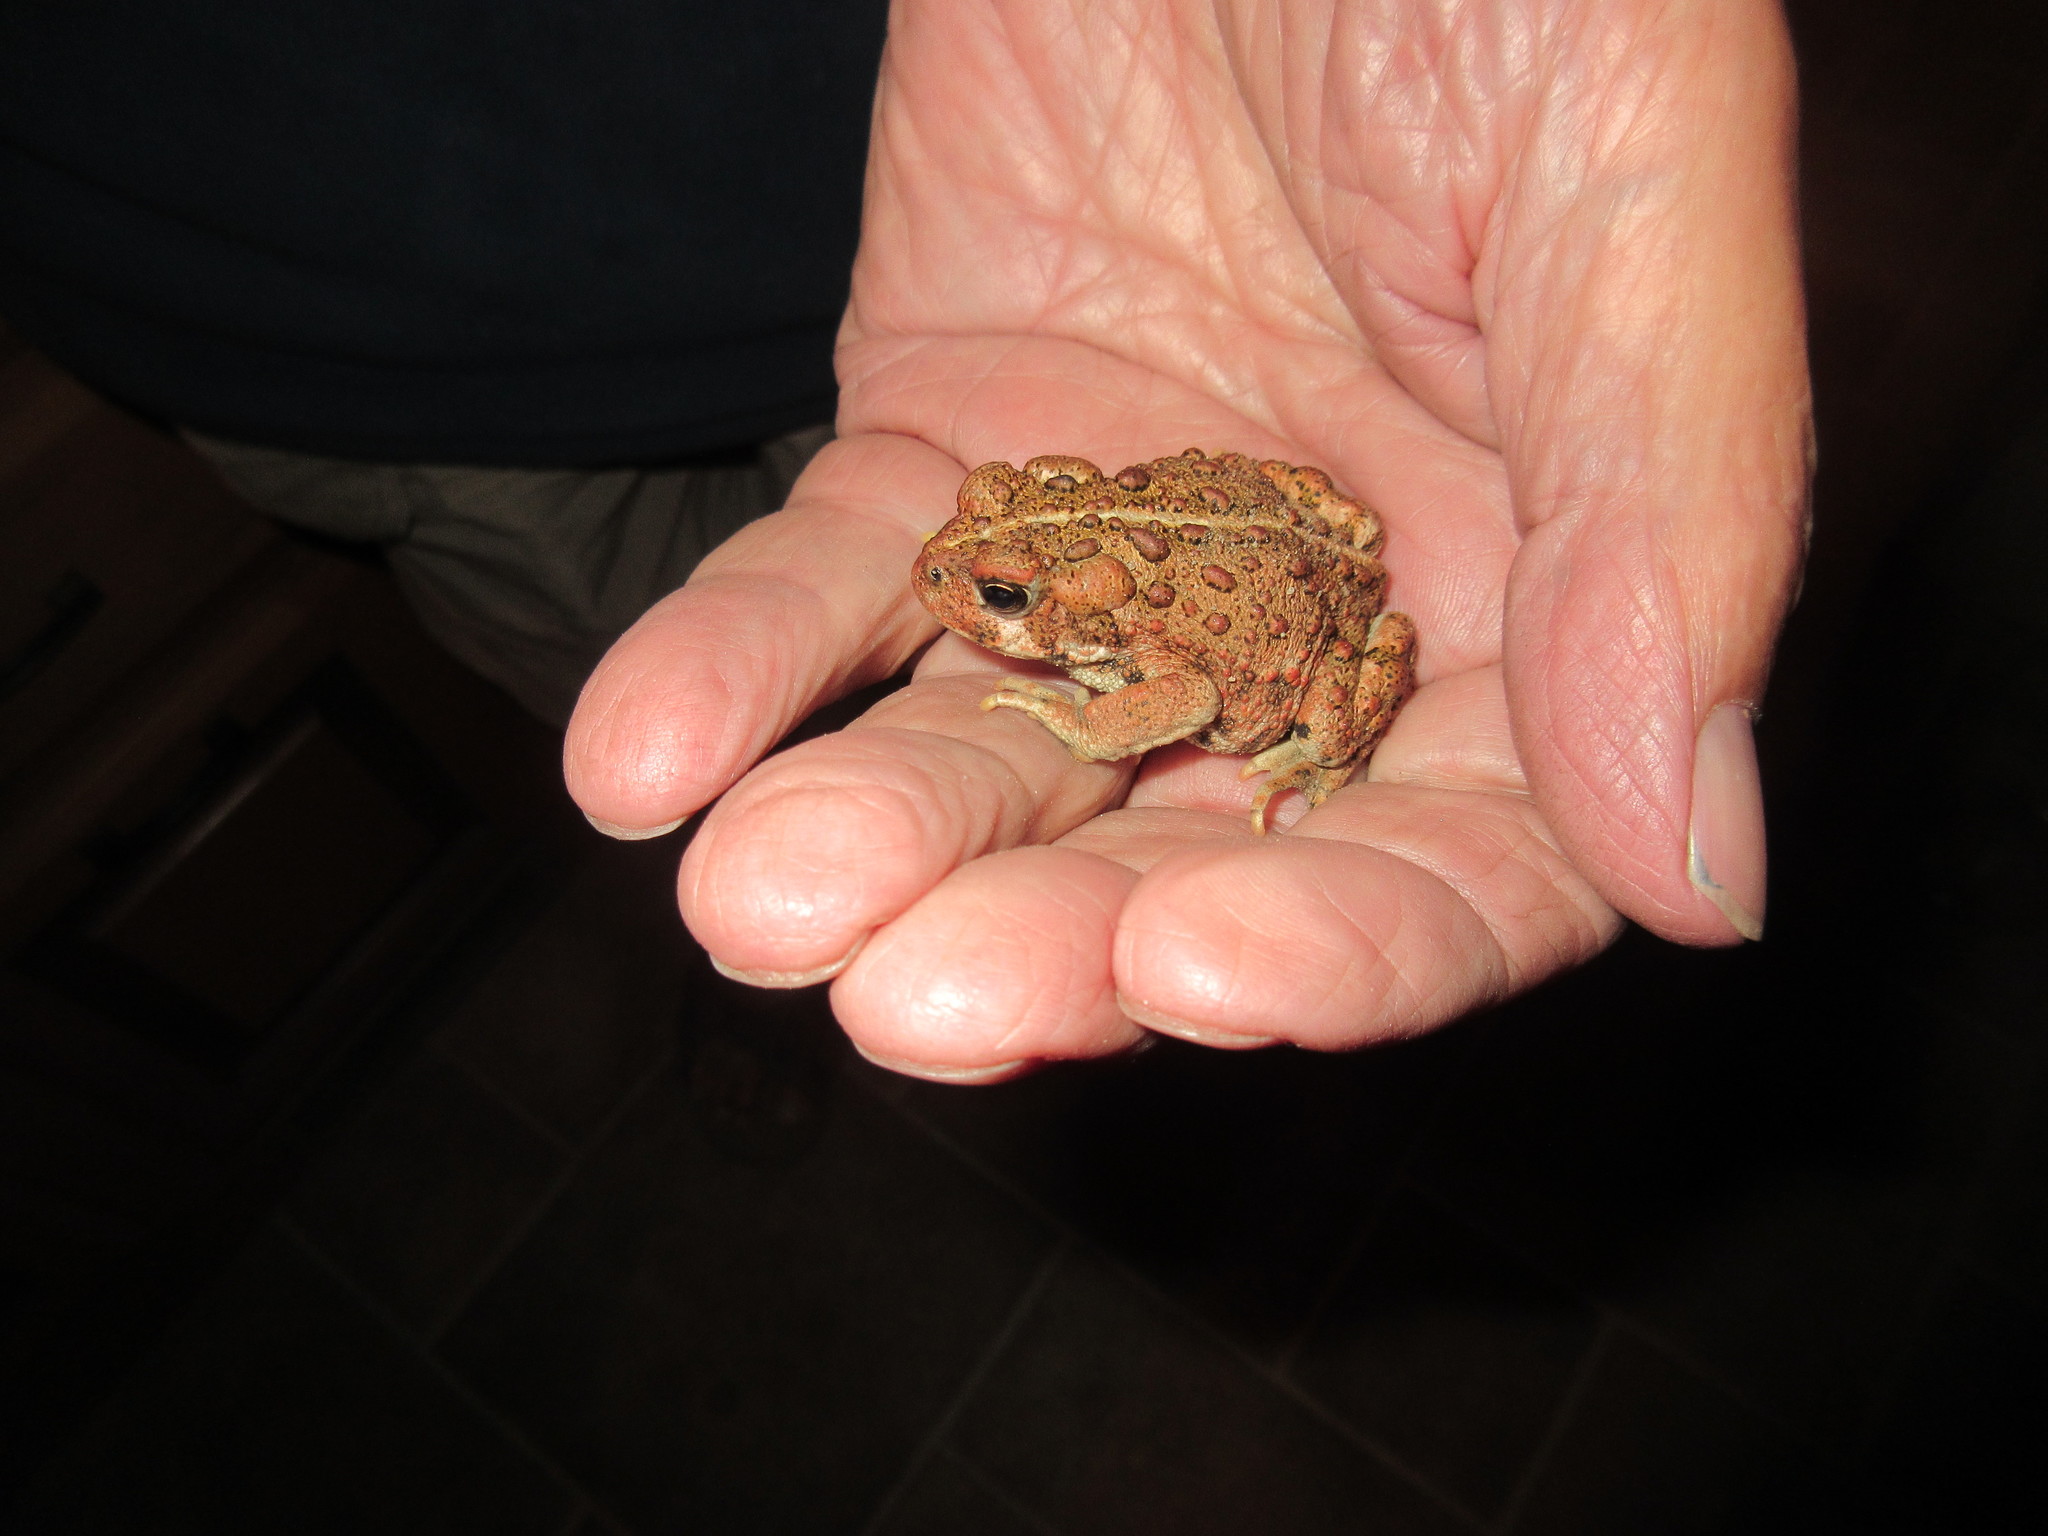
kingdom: Animalia
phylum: Chordata
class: Amphibia
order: Anura
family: Bufonidae
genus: Anaxyrus
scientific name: Anaxyrus boreas
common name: Western toad
